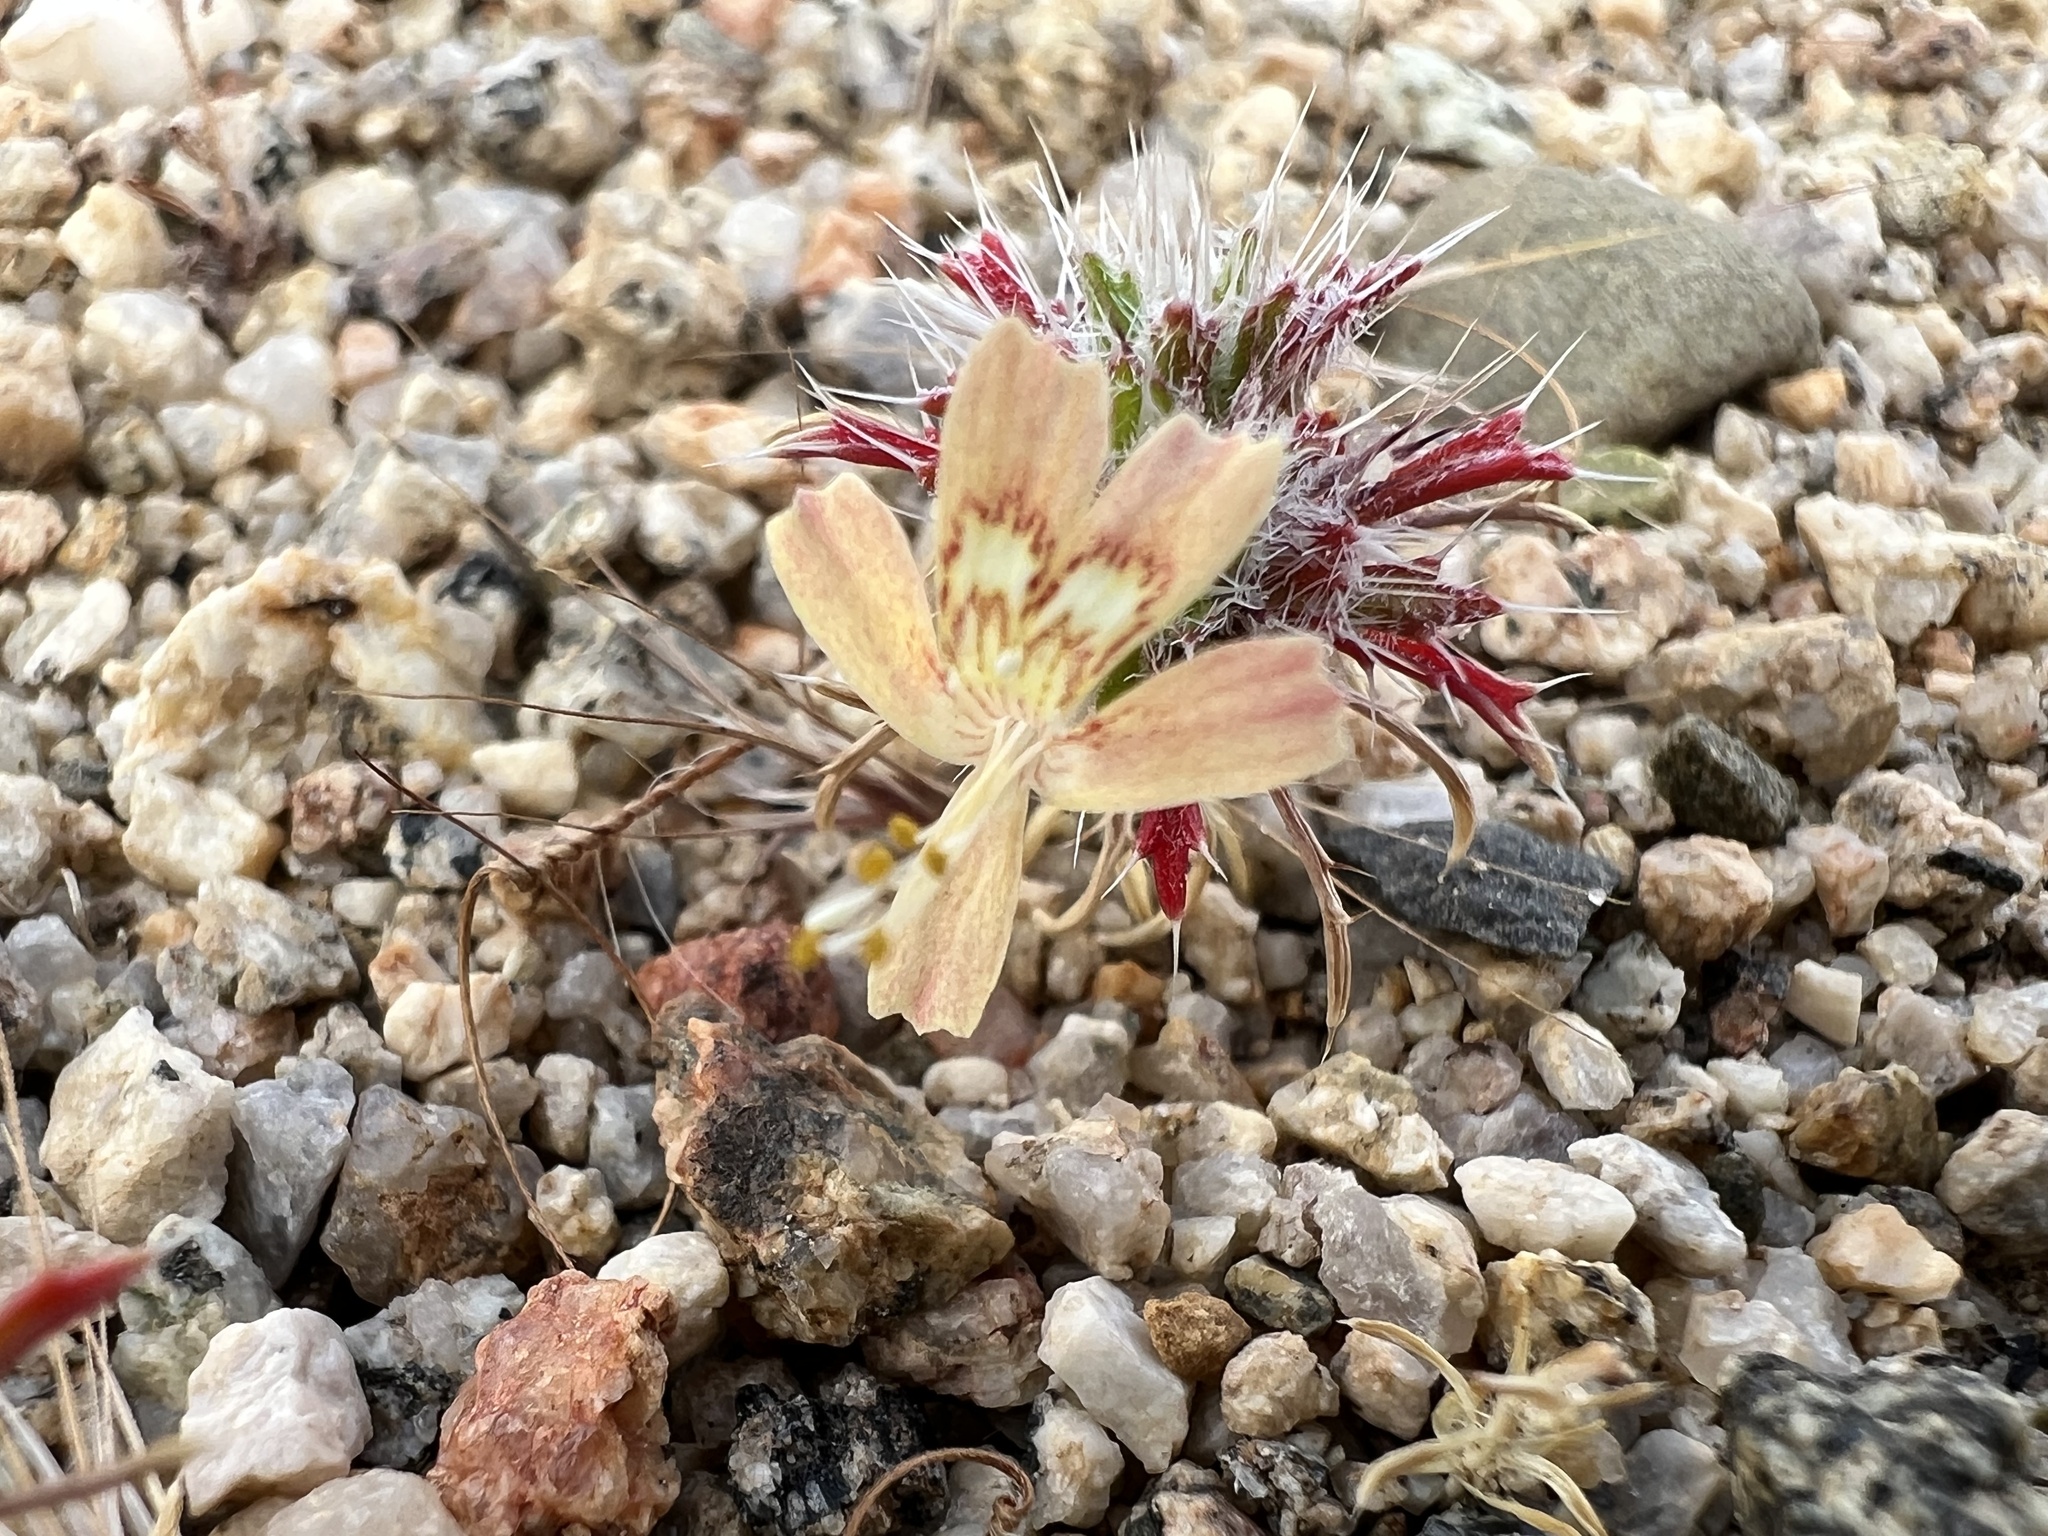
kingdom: Plantae
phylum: Tracheophyta
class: Magnoliopsida
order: Ericales
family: Polemoniaceae
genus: Loeseliastrum
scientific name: Loeseliastrum matthewsii
